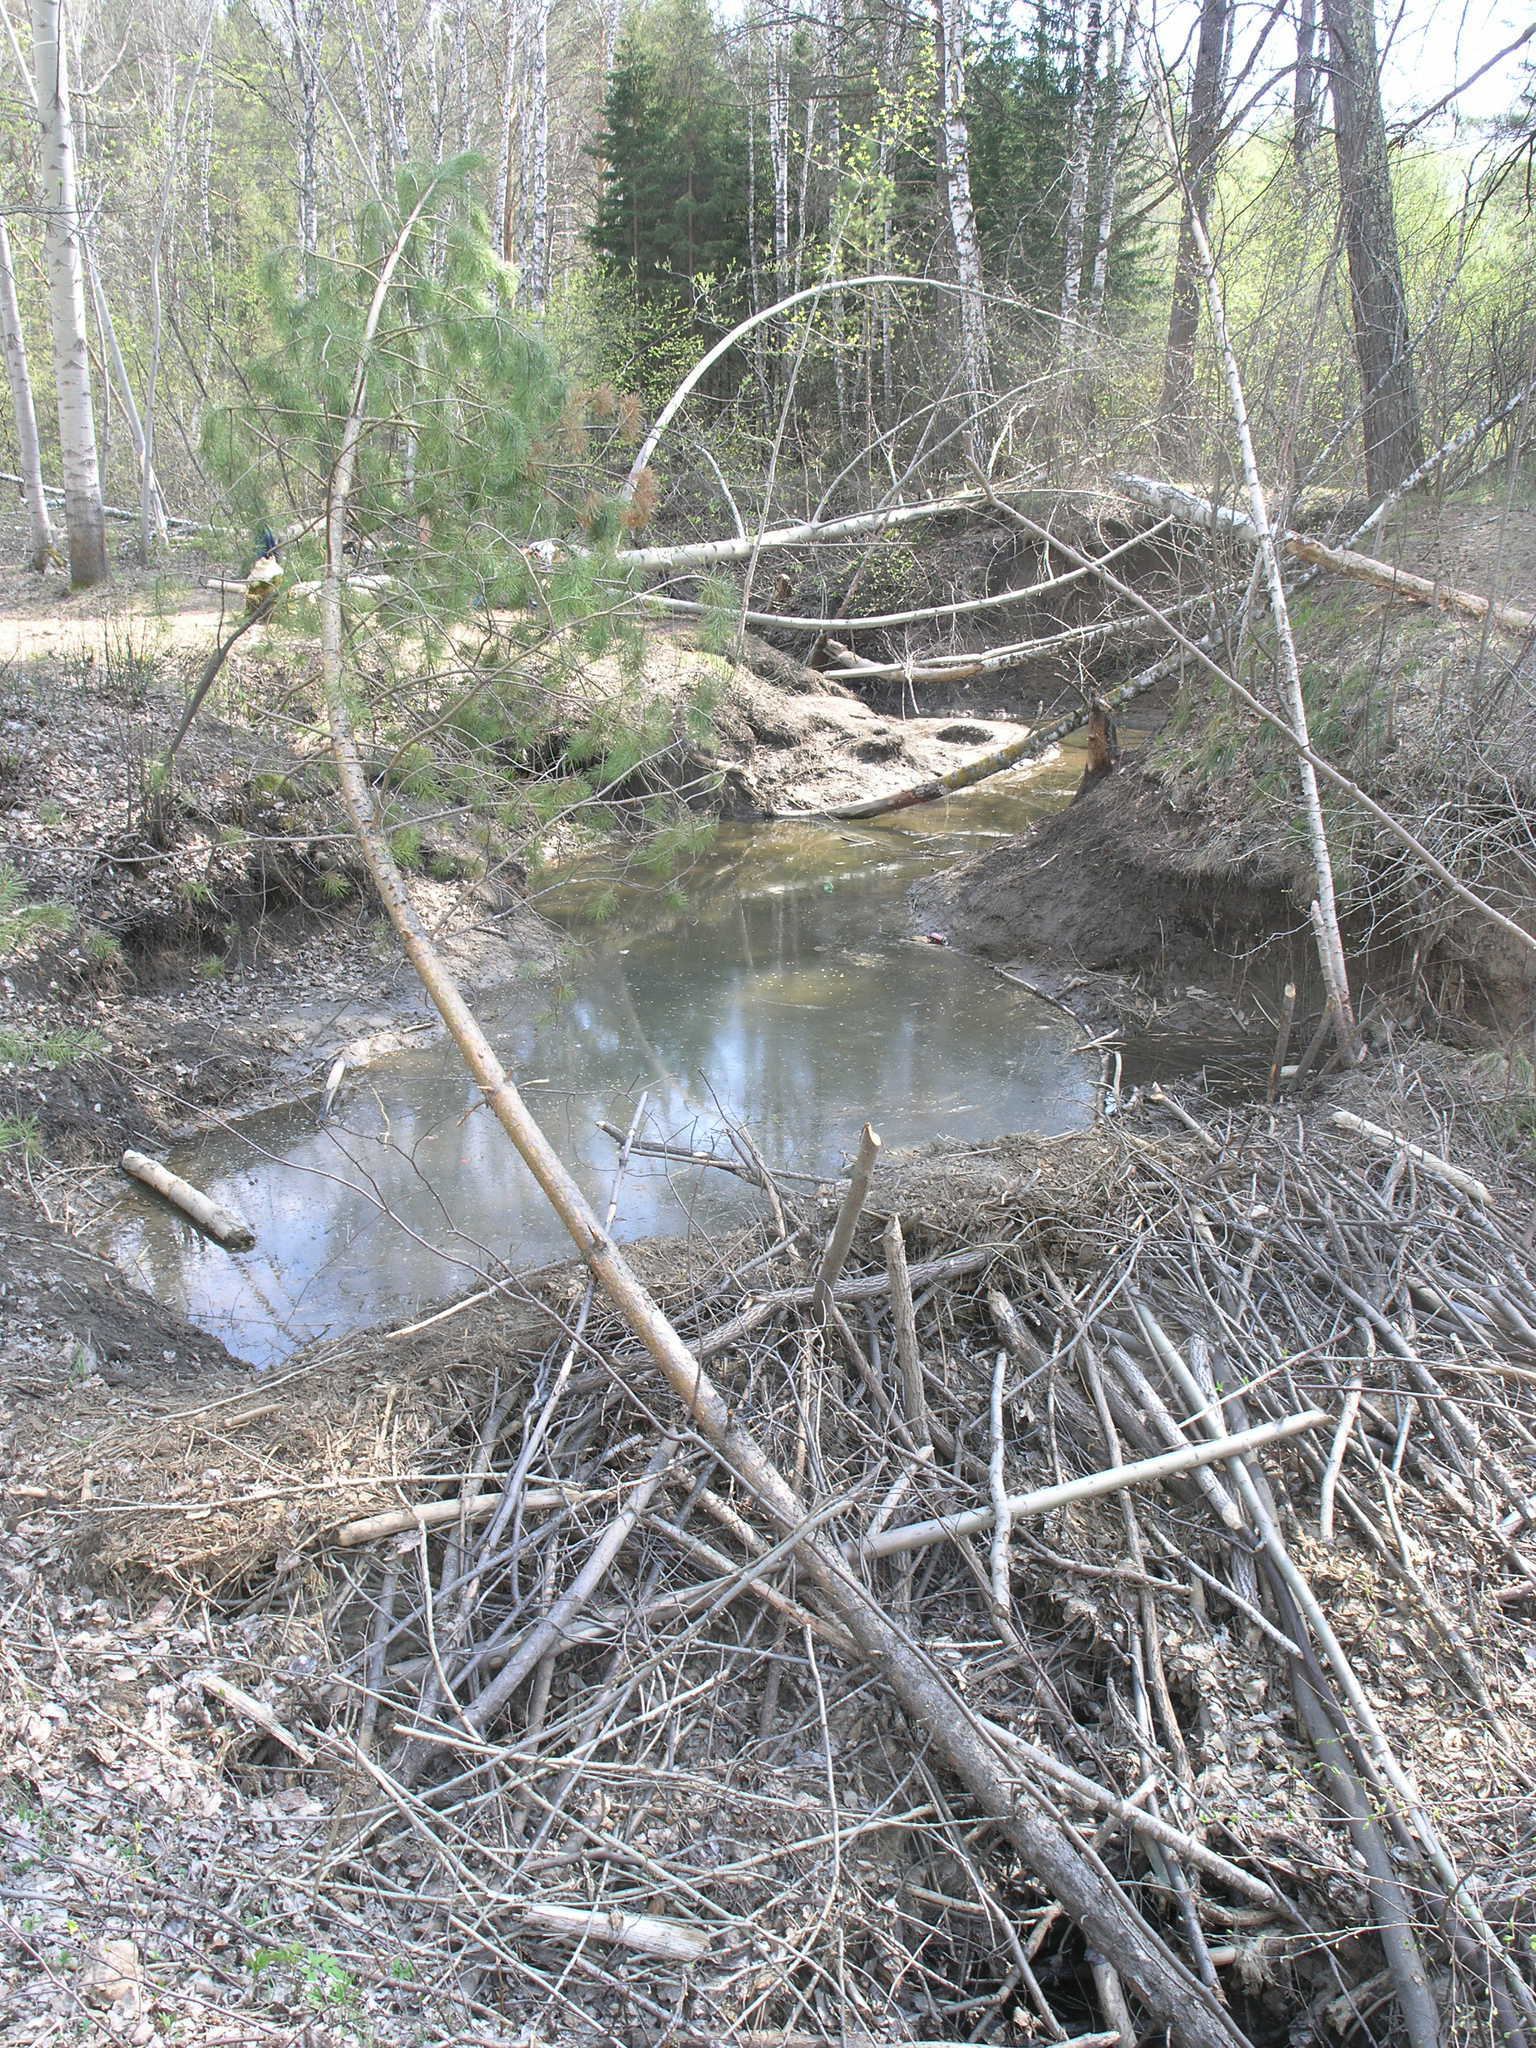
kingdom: Animalia
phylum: Chordata
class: Mammalia
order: Rodentia
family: Castoridae
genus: Castor
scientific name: Castor fiber
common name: Eurasian beaver
